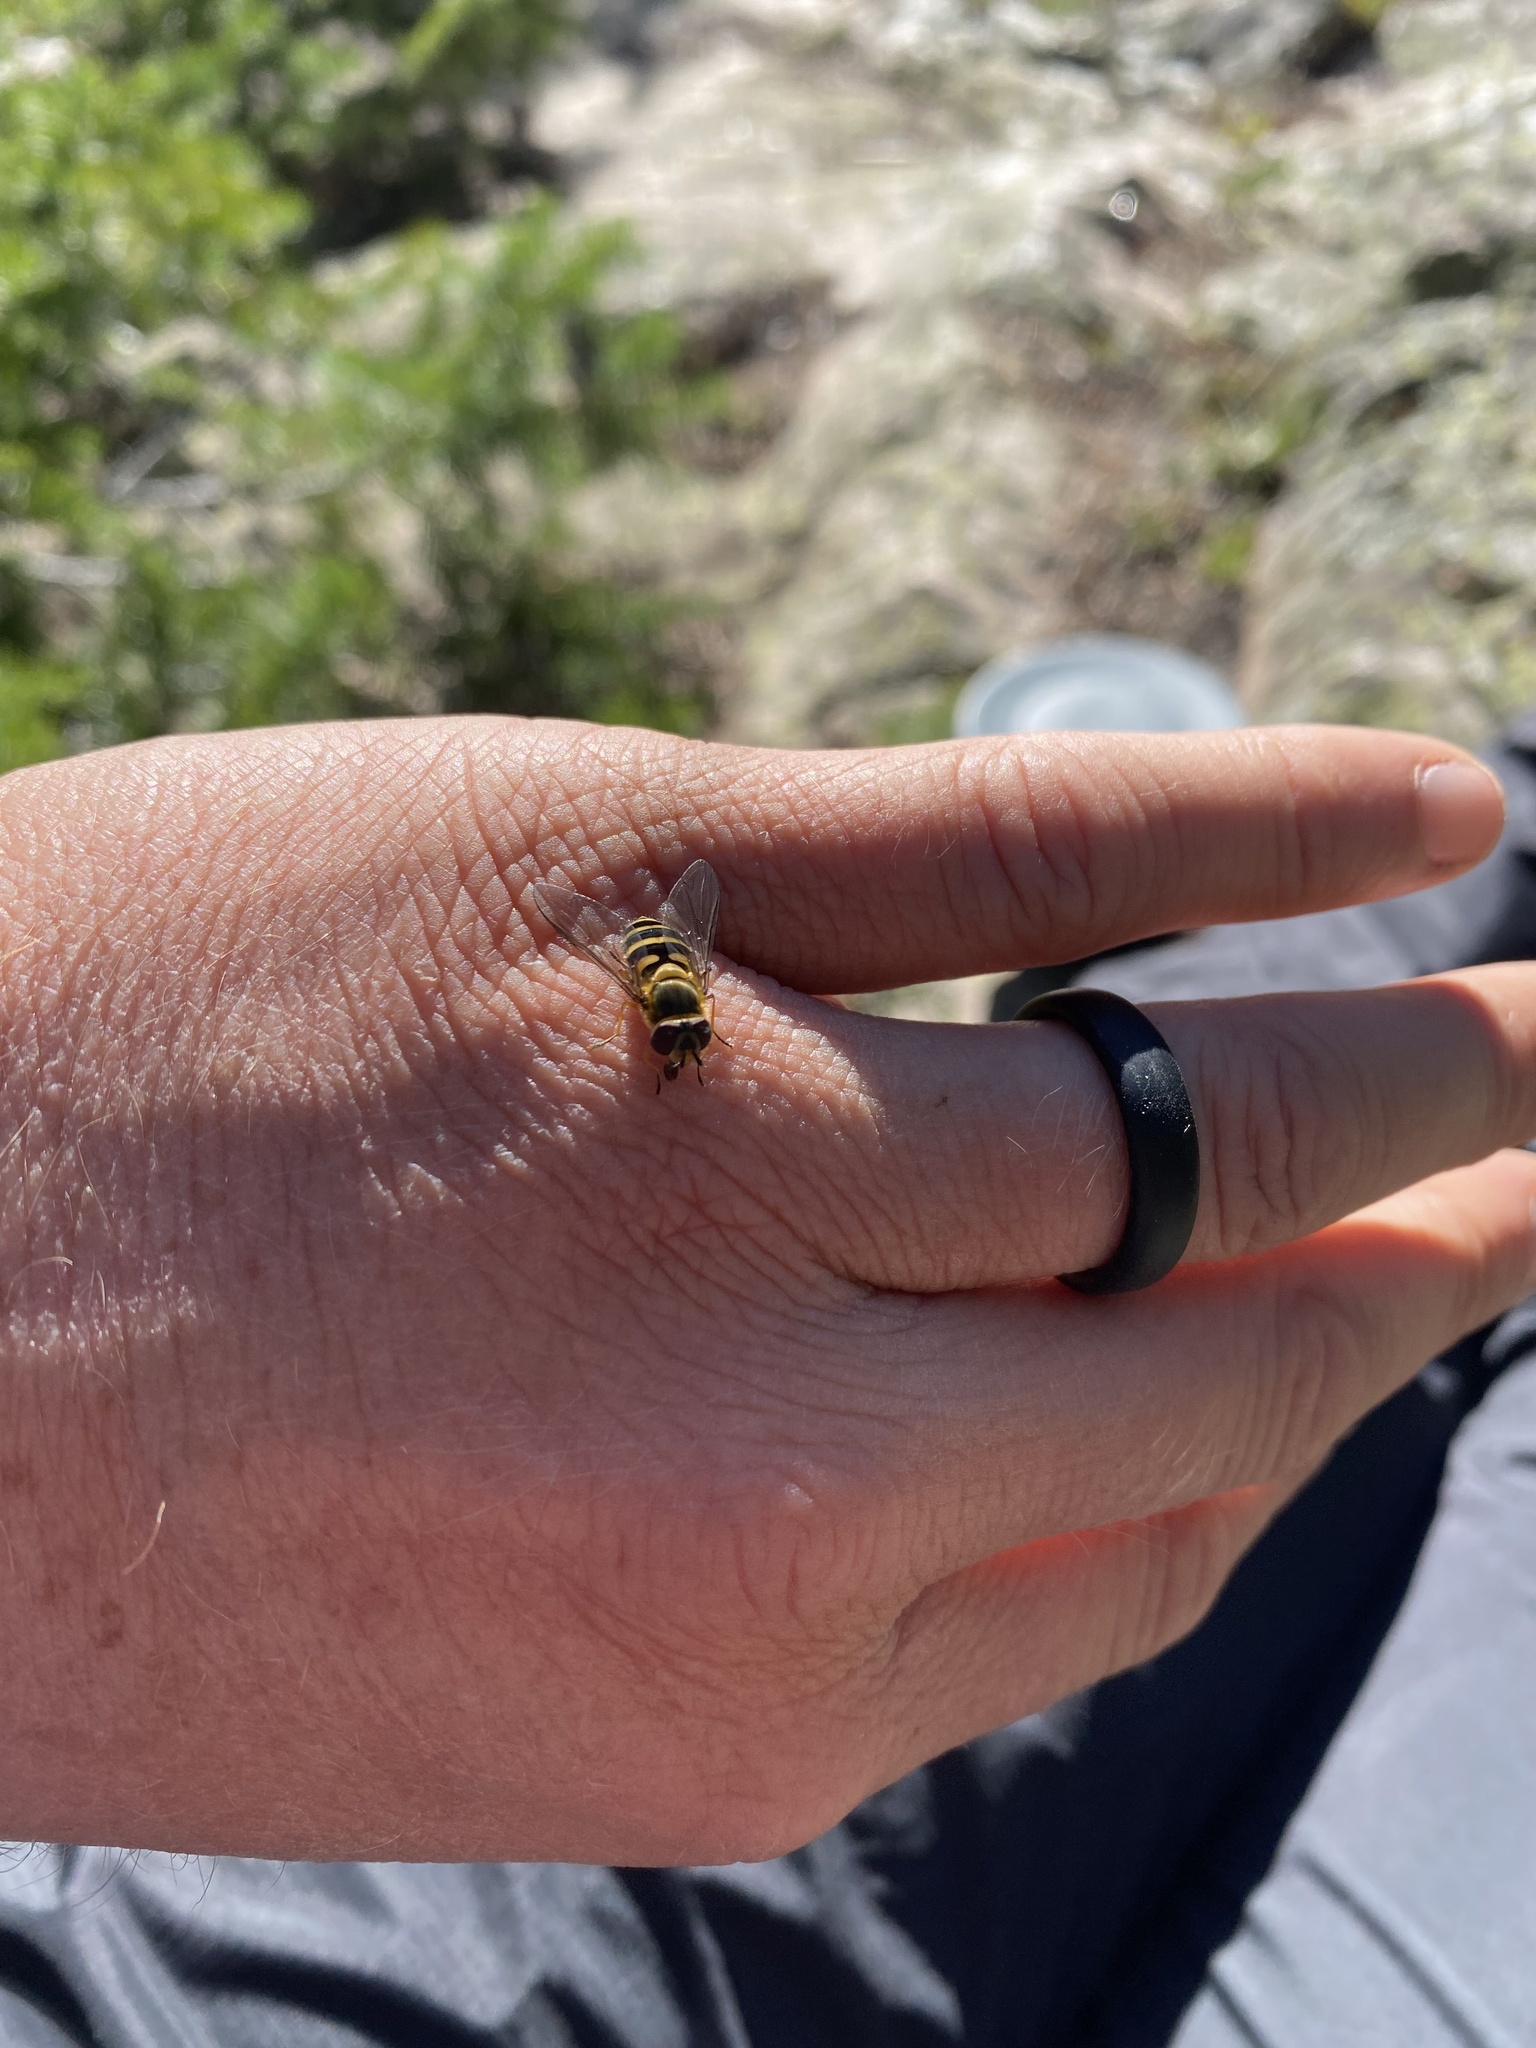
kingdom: Animalia
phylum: Arthropoda
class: Insecta
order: Diptera
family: Syrphidae
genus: Syrphus
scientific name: Syrphus
